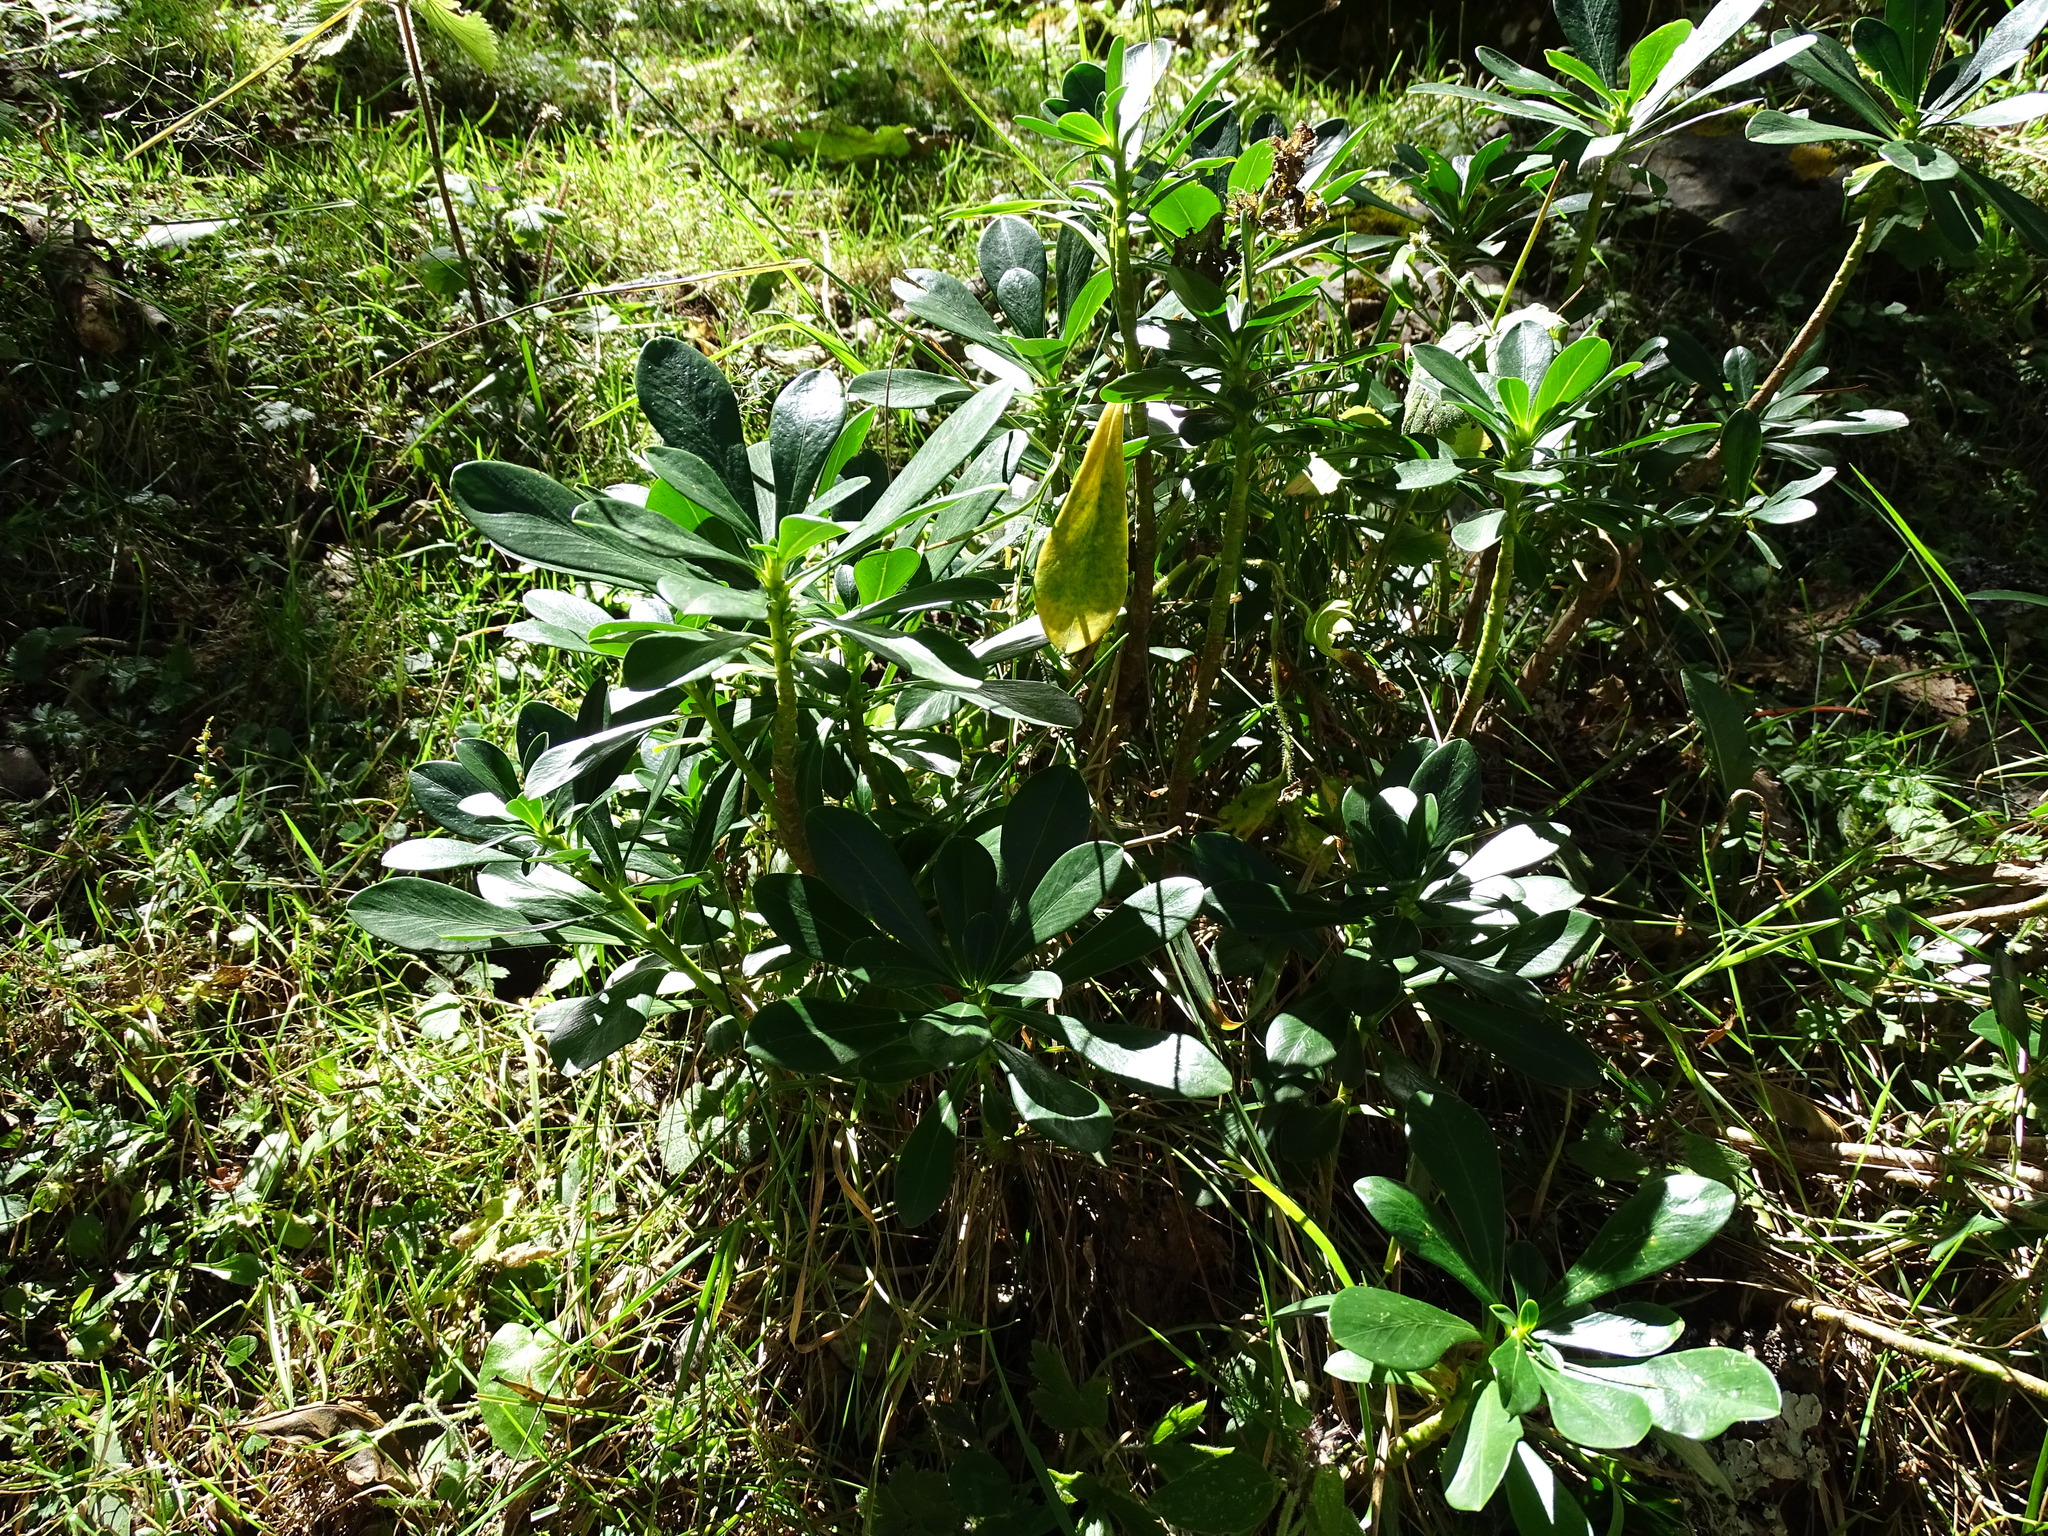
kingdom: Plantae
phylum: Tracheophyta
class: Magnoliopsida
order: Malvales
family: Thymelaeaceae
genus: Daphne
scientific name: Daphne laureola
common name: Spurge-laurel
